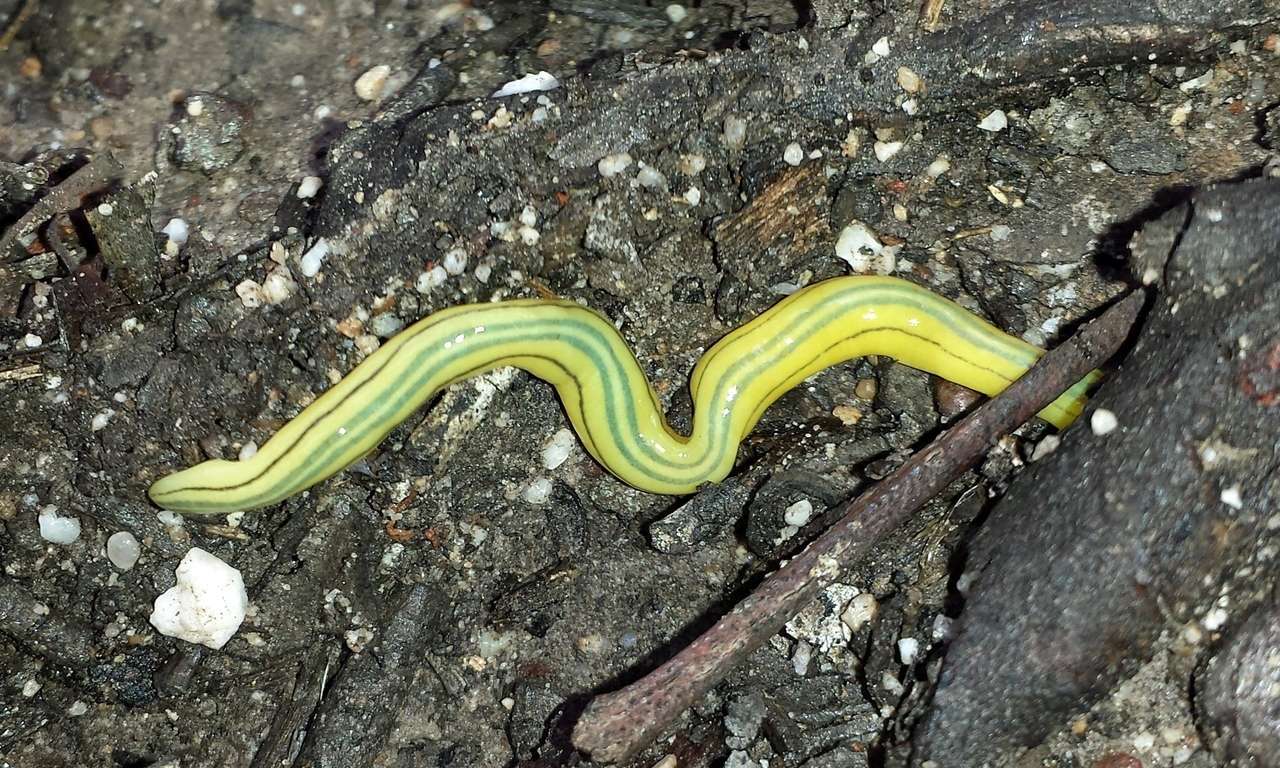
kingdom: Animalia
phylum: Platyhelminthes
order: Tricladida
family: Geoplanidae
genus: Caenoplana
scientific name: Caenoplana hoggii
